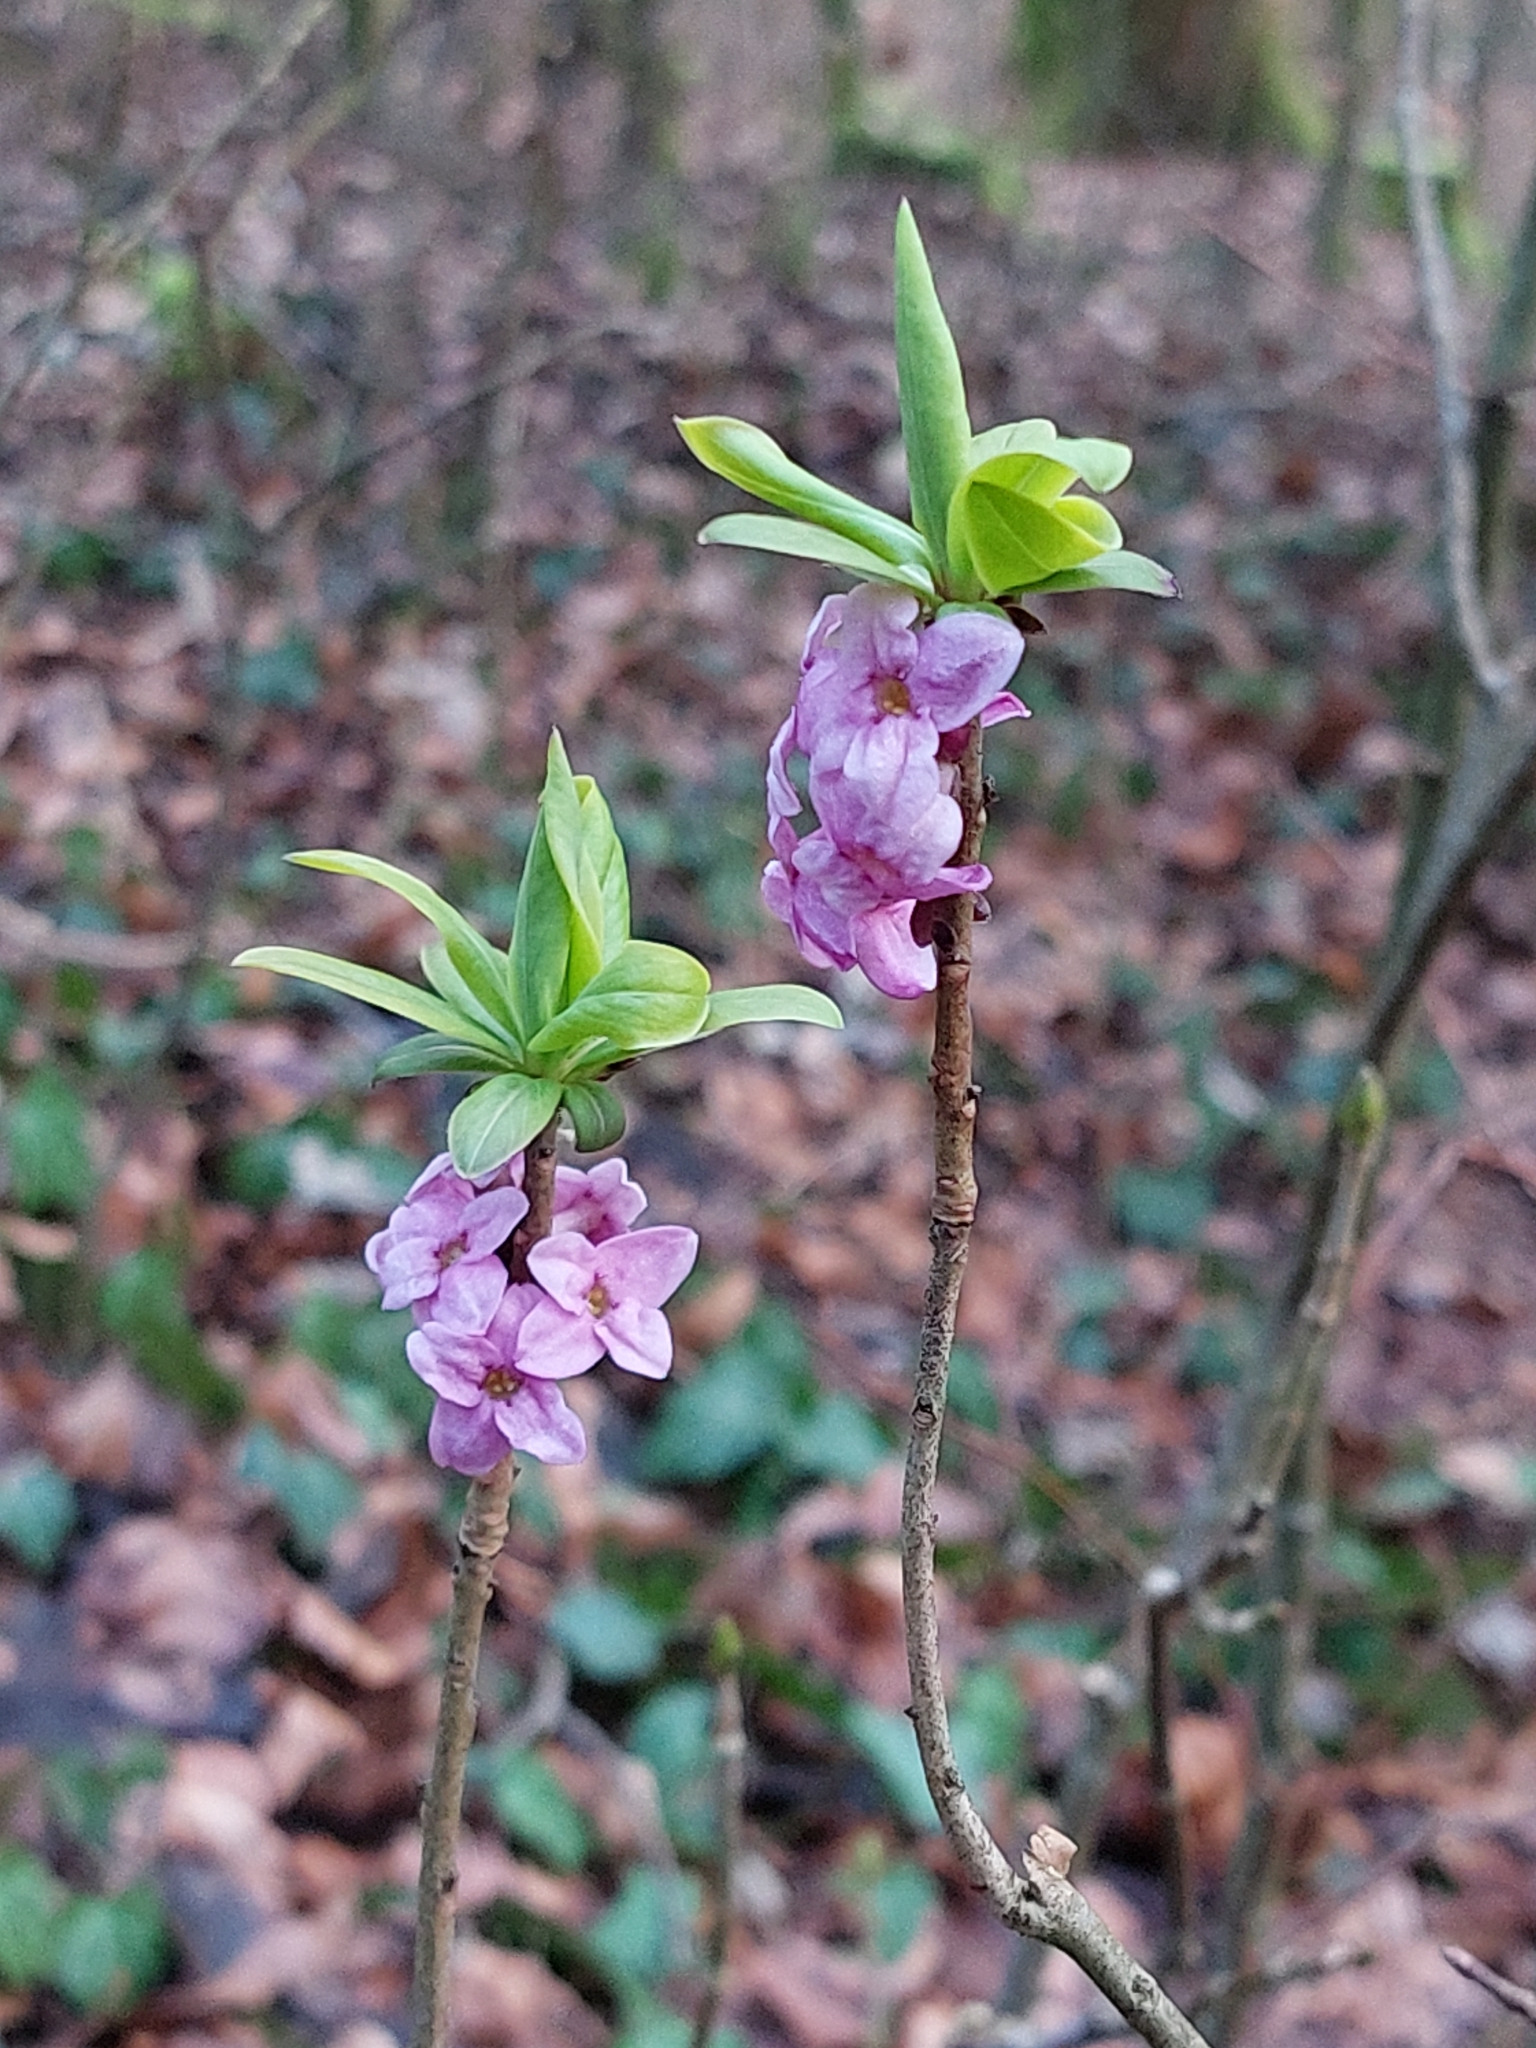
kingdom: Plantae
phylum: Tracheophyta
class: Magnoliopsida
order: Malvales
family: Thymelaeaceae
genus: Daphne
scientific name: Daphne mezereum
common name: Mezereon
